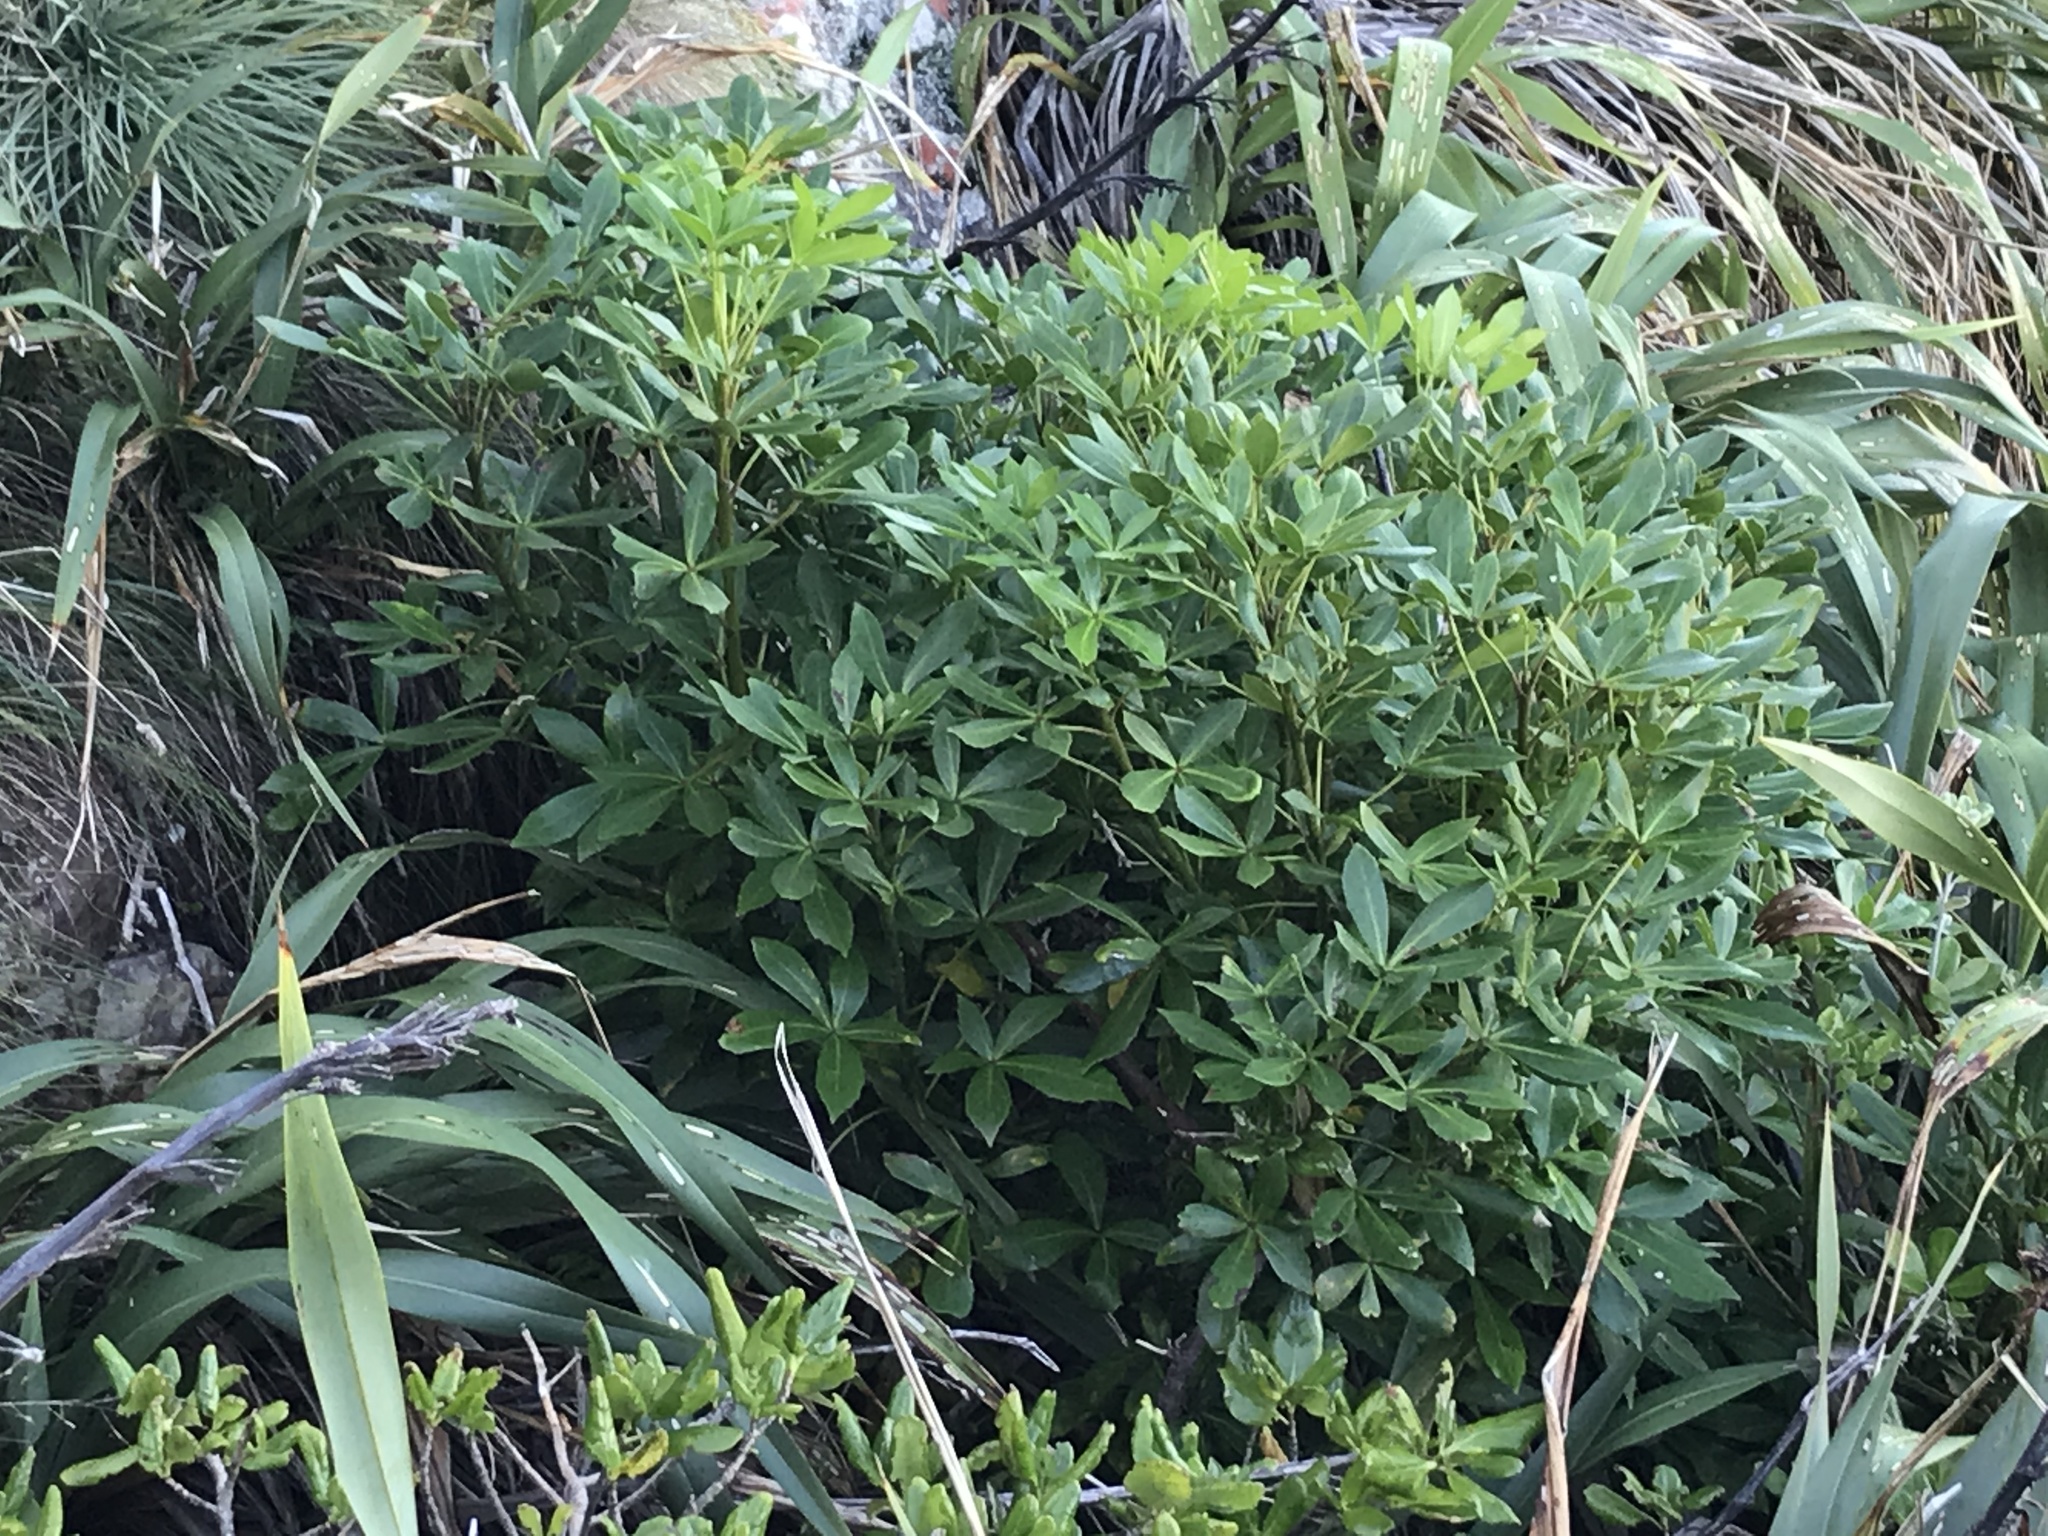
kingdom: Plantae
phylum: Tracheophyta
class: Magnoliopsida
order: Apiales
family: Araliaceae
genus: Pseudopanax
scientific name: Pseudopanax
